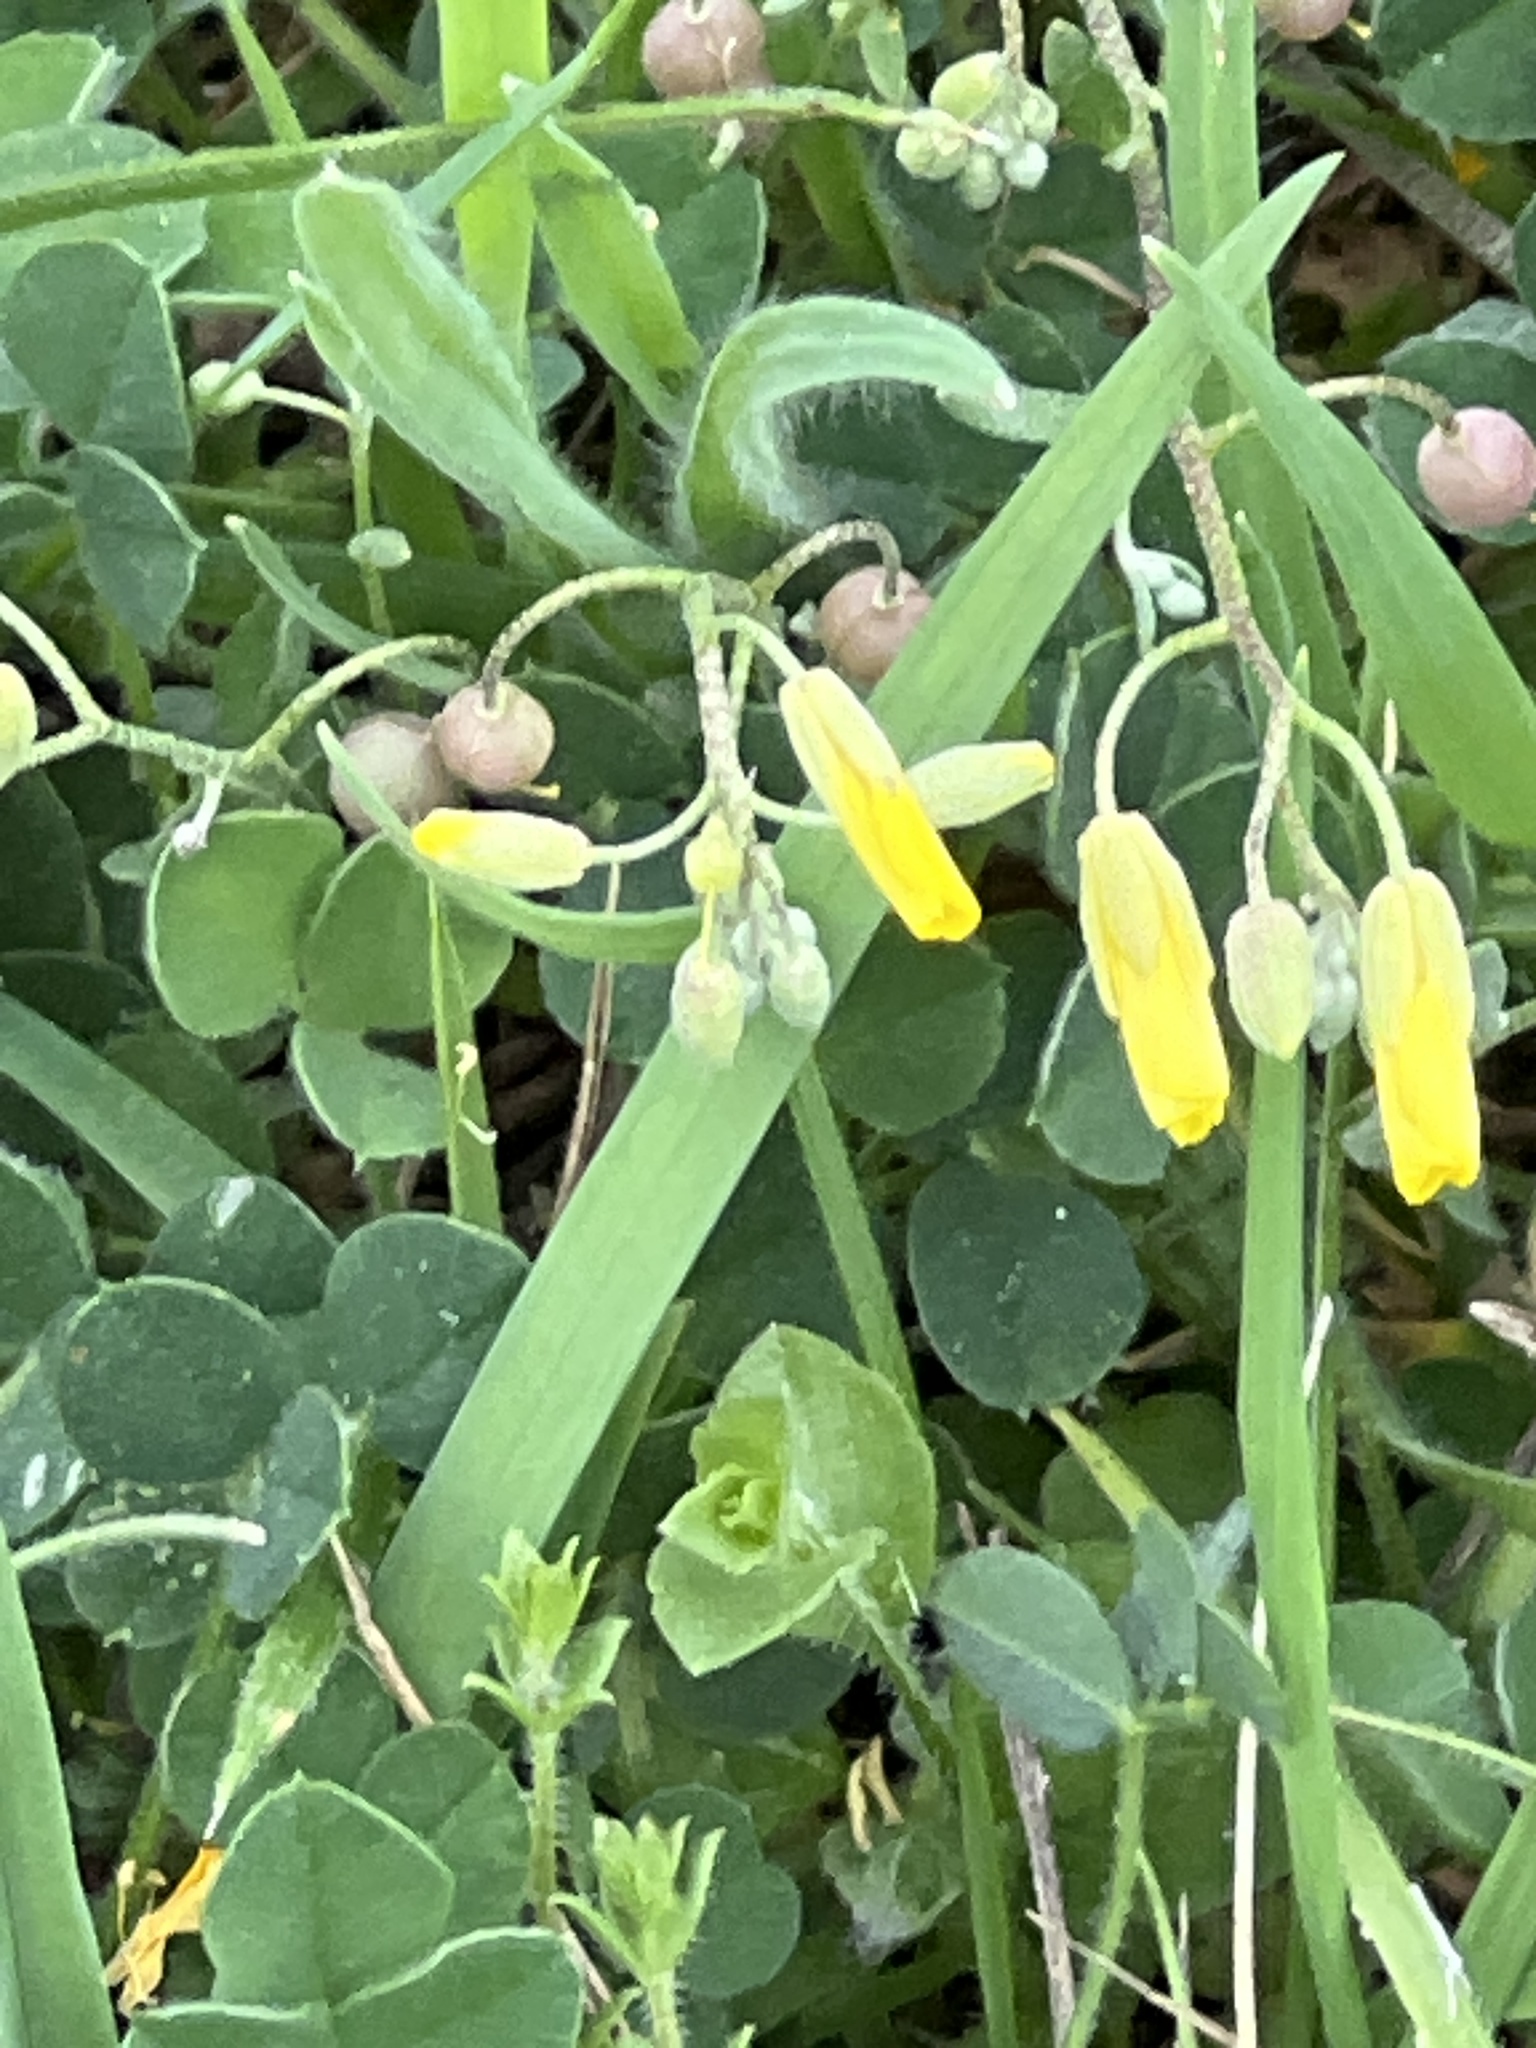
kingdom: Plantae
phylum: Tracheophyta
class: Magnoliopsida
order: Brassicales
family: Brassicaceae
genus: Physaria
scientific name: Physaria recurvata
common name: Gaslight bladderpod
